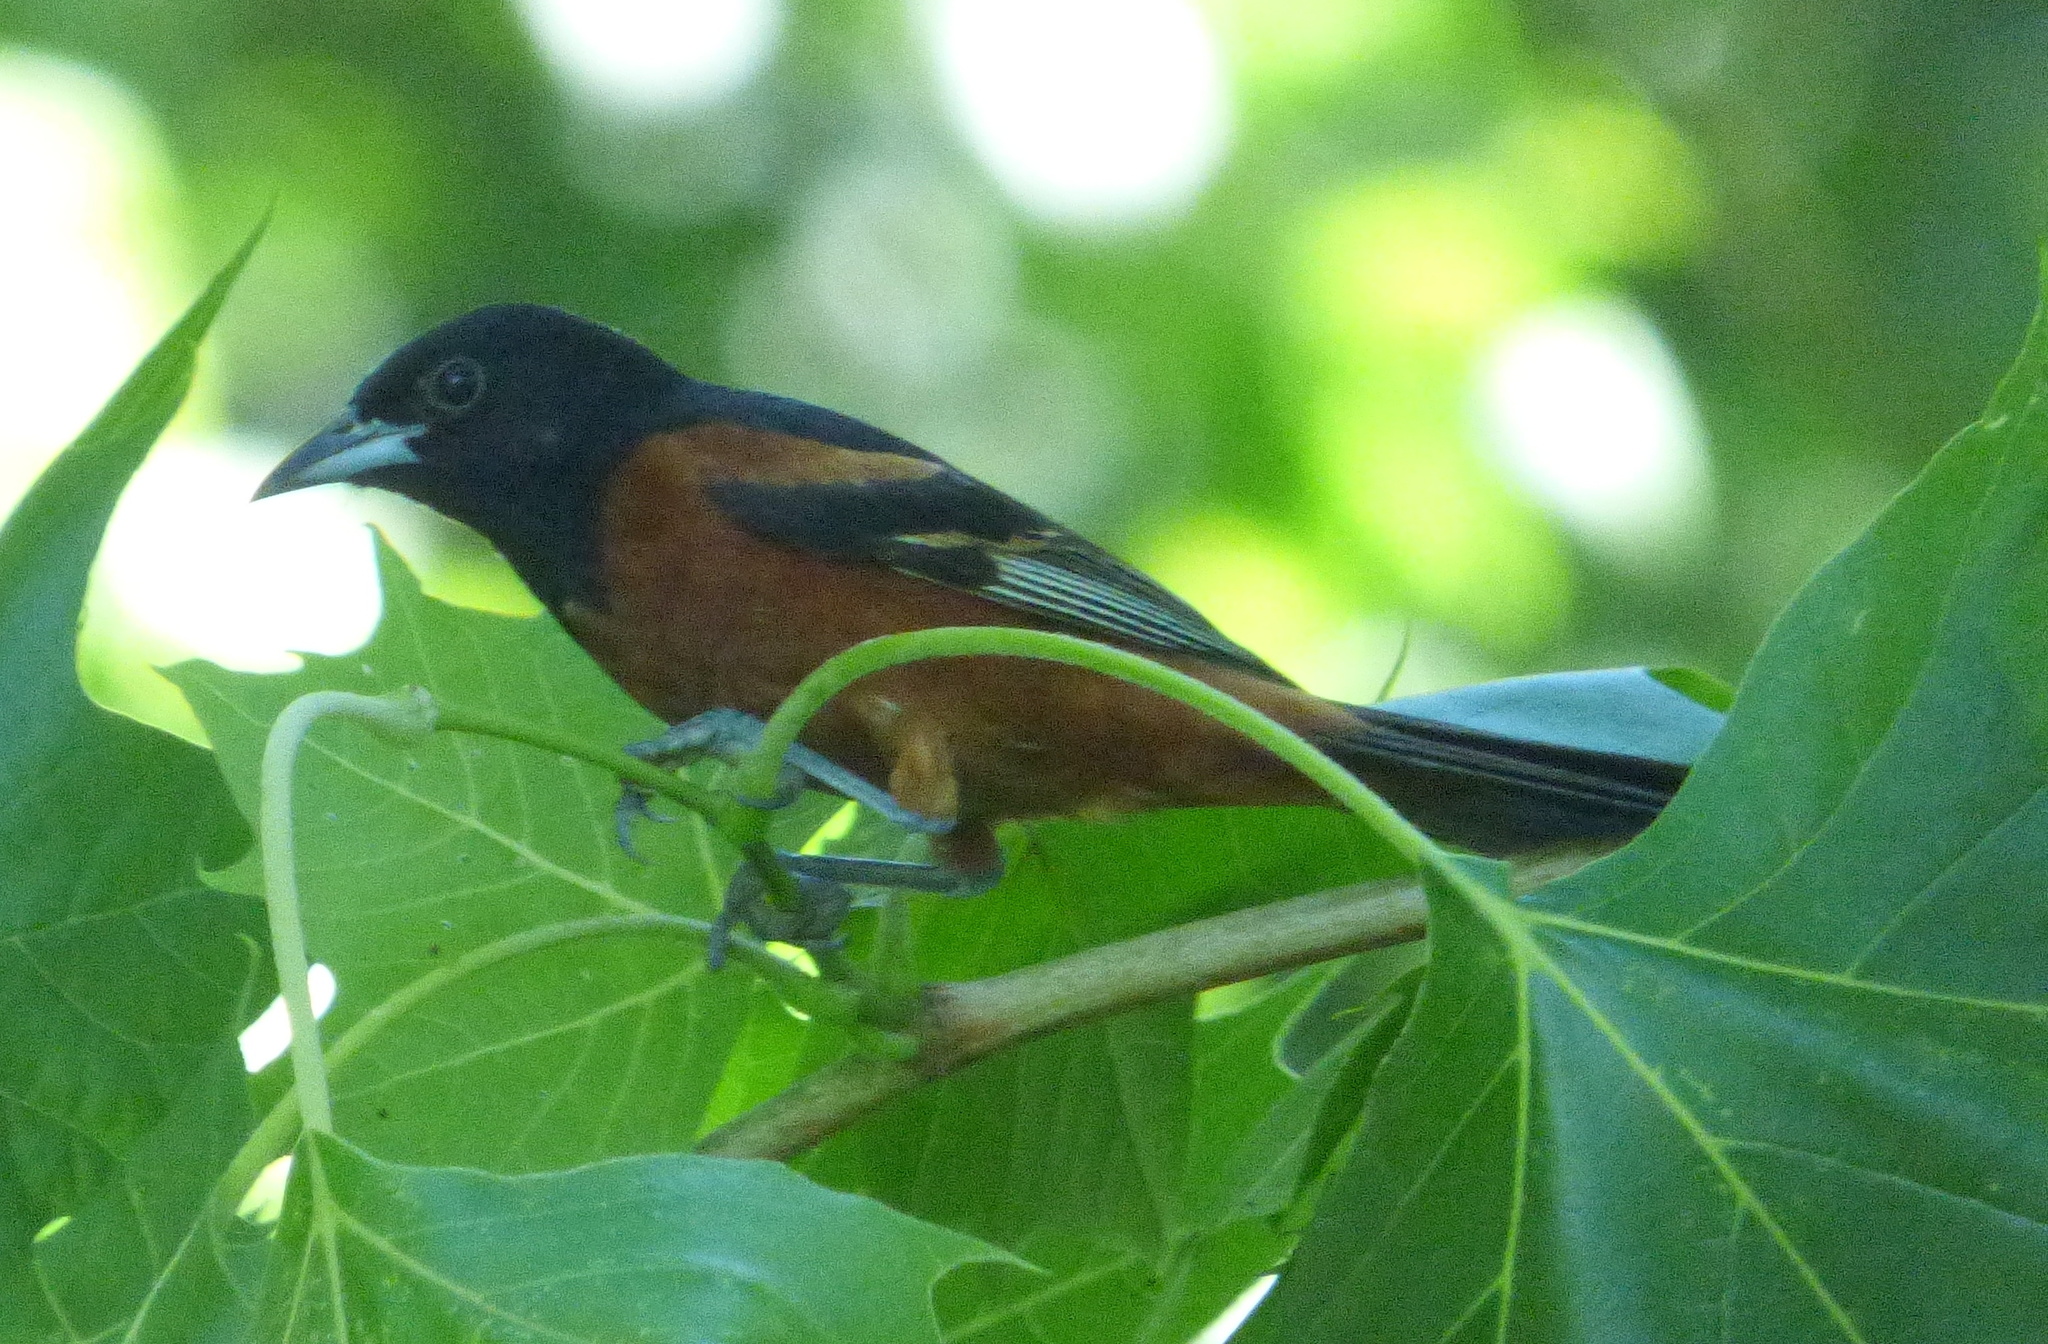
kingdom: Animalia
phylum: Chordata
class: Aves
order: Passeriformes
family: Icteridae
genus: Icterus
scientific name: Icterus spurius
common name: Orchard oriole
